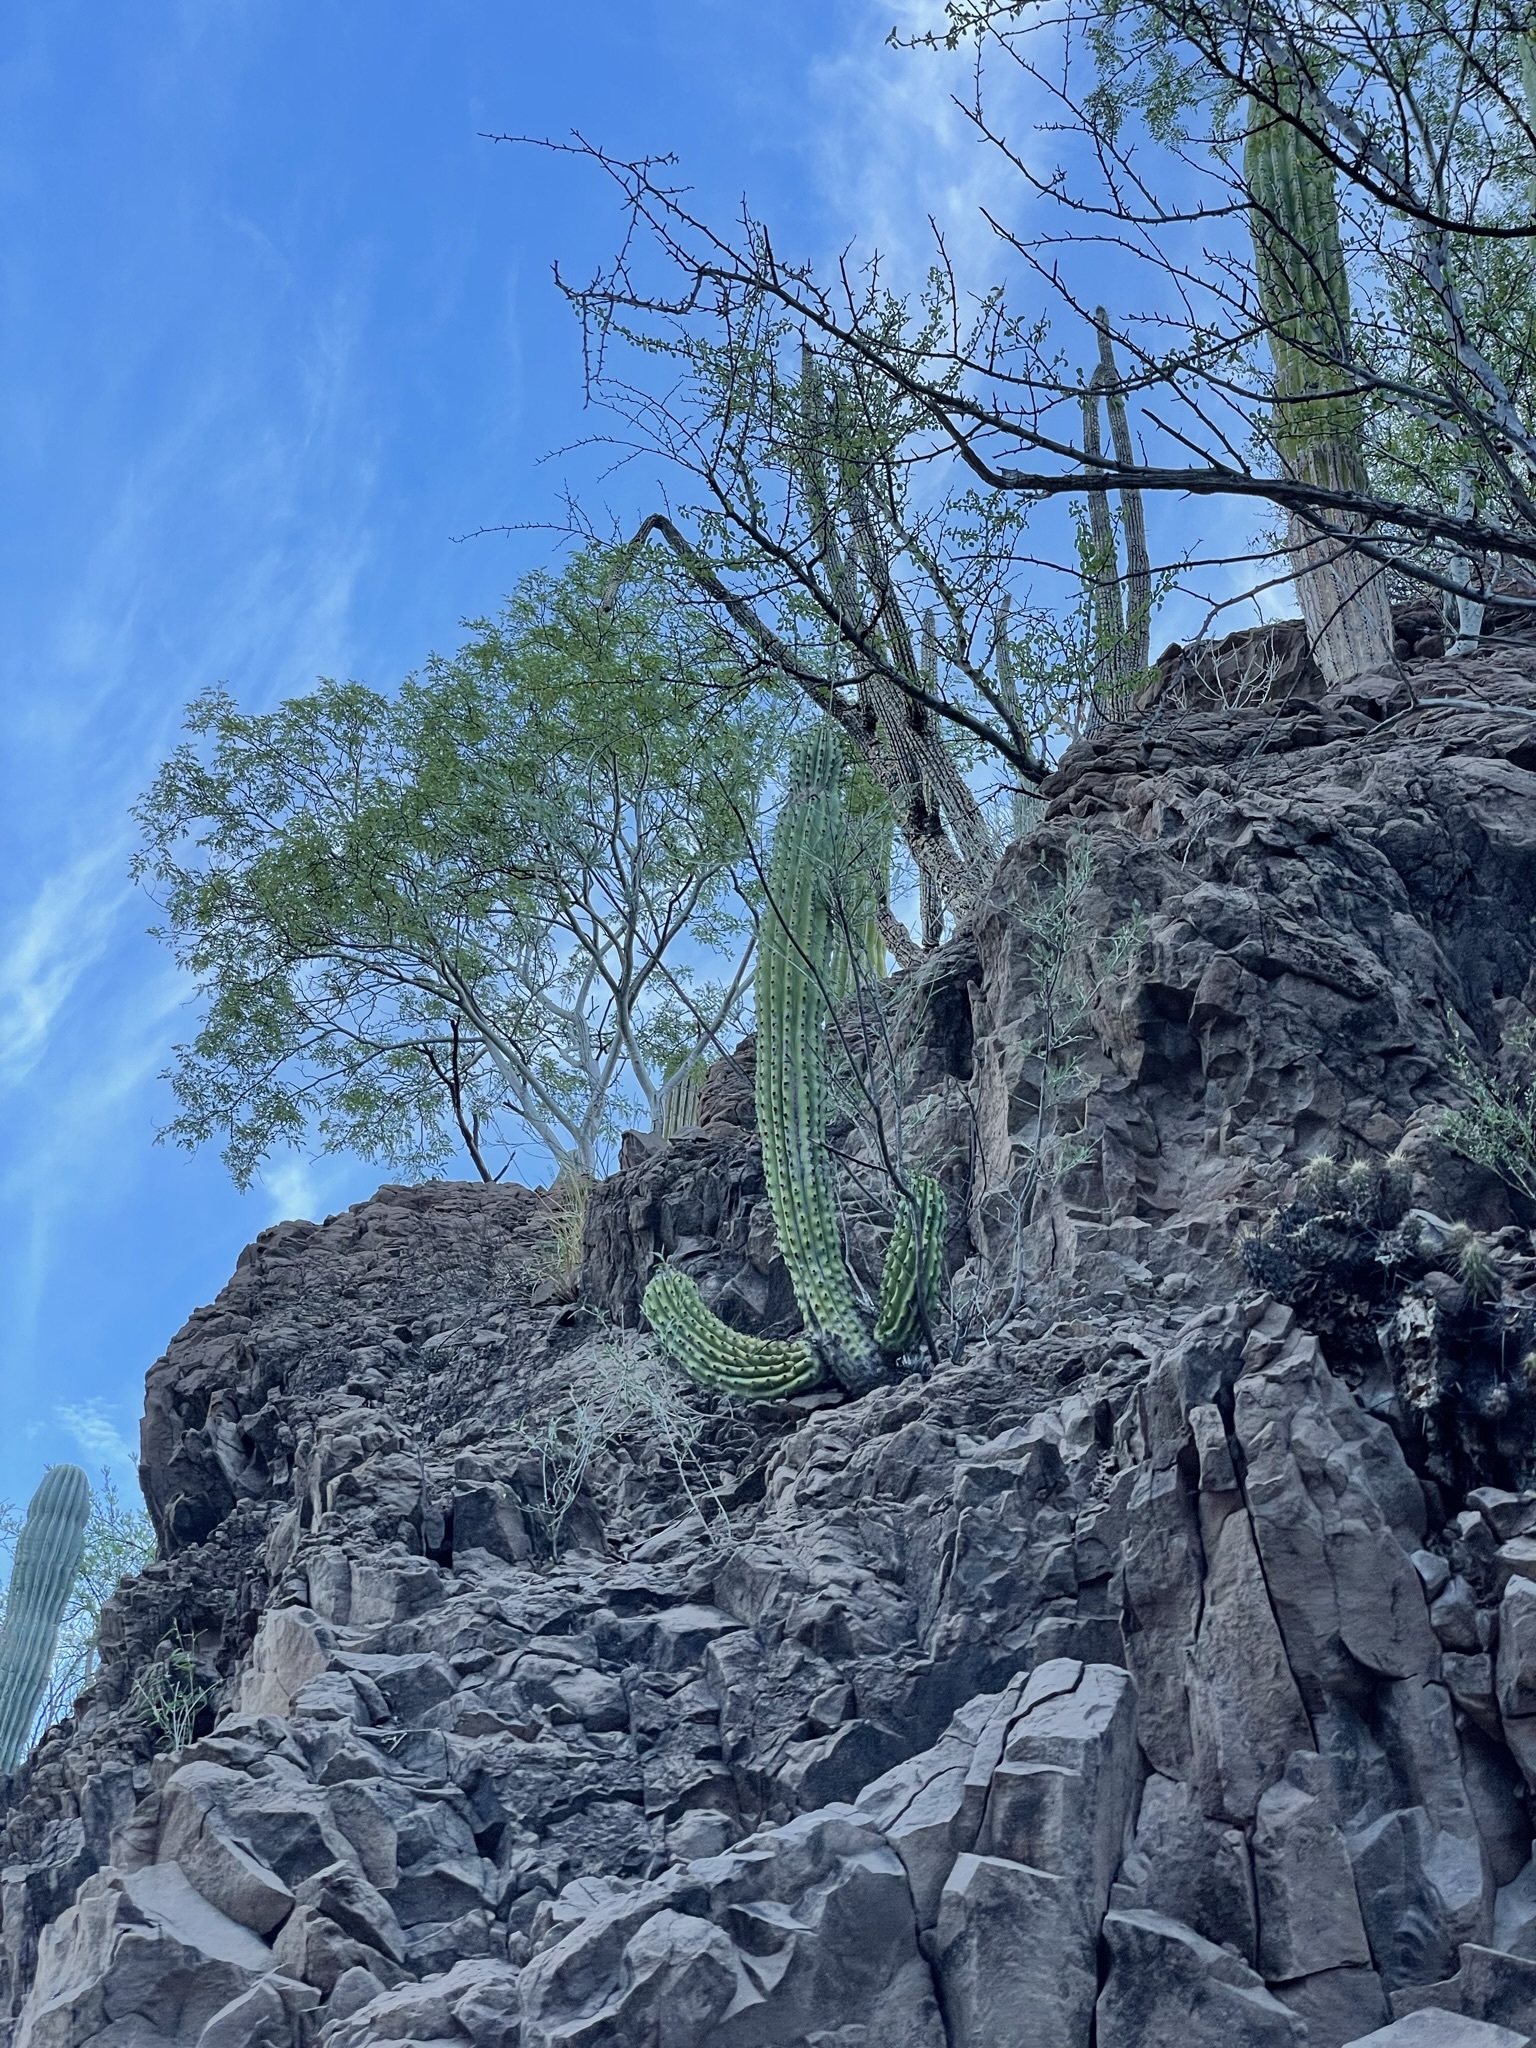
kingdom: Plantae
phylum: Tracheophyta
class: Magnoliopsida
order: Caryophyllales
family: Cactaceae
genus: Stenocereus
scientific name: Stenocereus thurberi
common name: Organ pipe cactus
